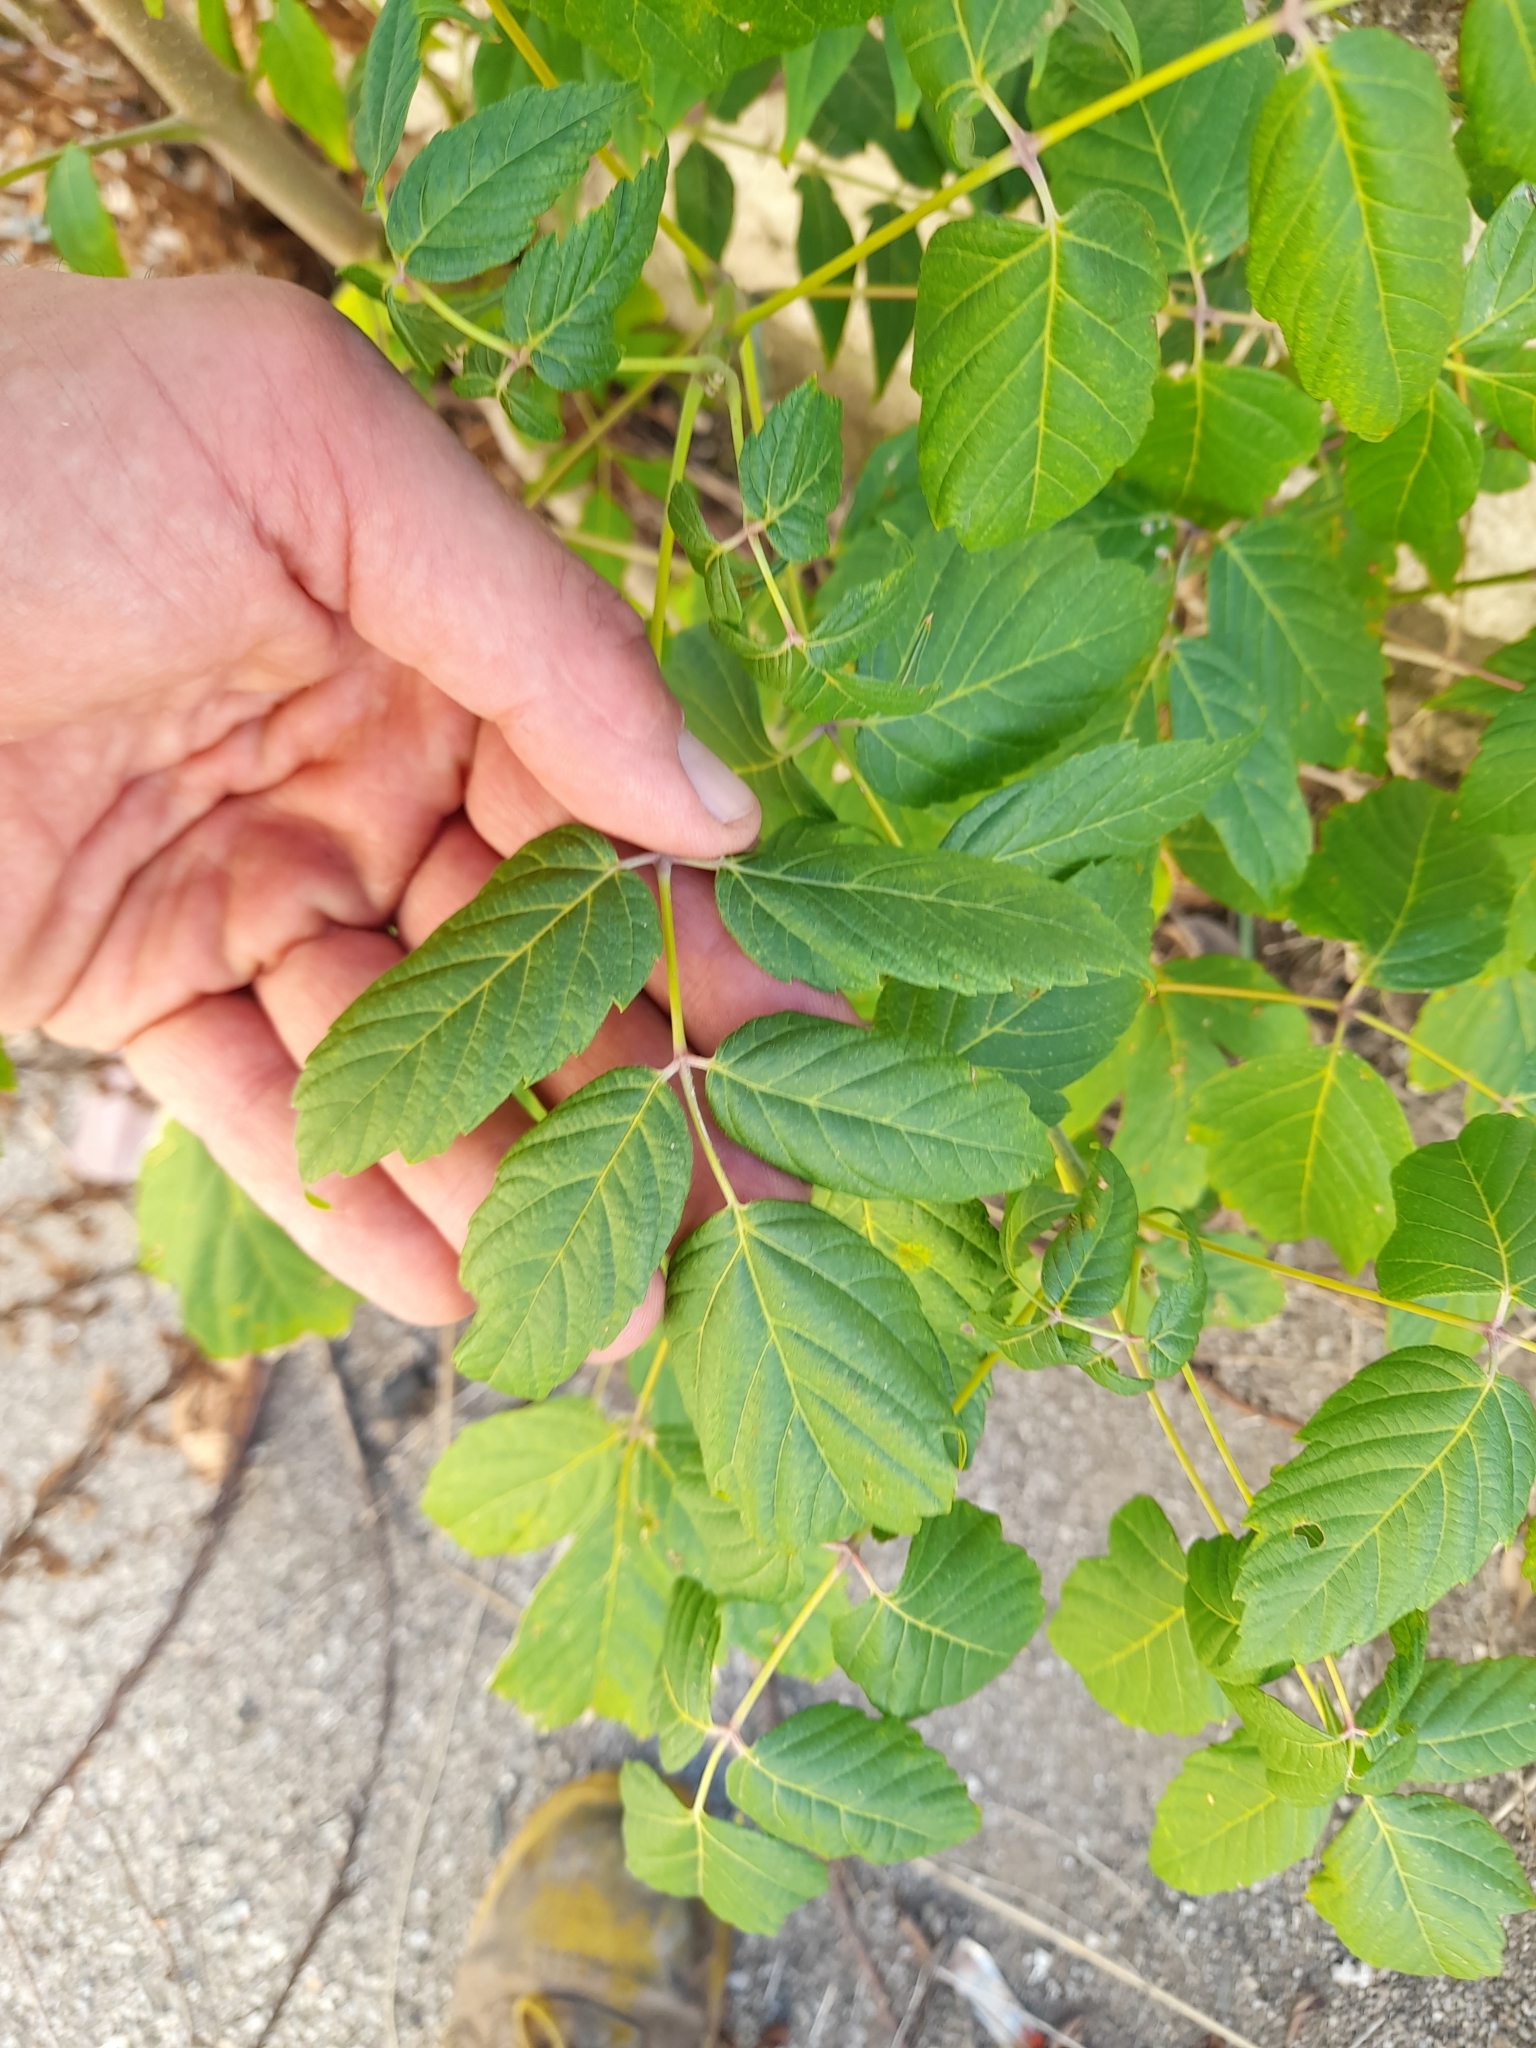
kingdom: Plantae
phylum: Tracheophyta
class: Magnoliopsida
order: Sapindales
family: Sapindaceae
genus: Acer
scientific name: Acer negundo
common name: Ashleaf maple
